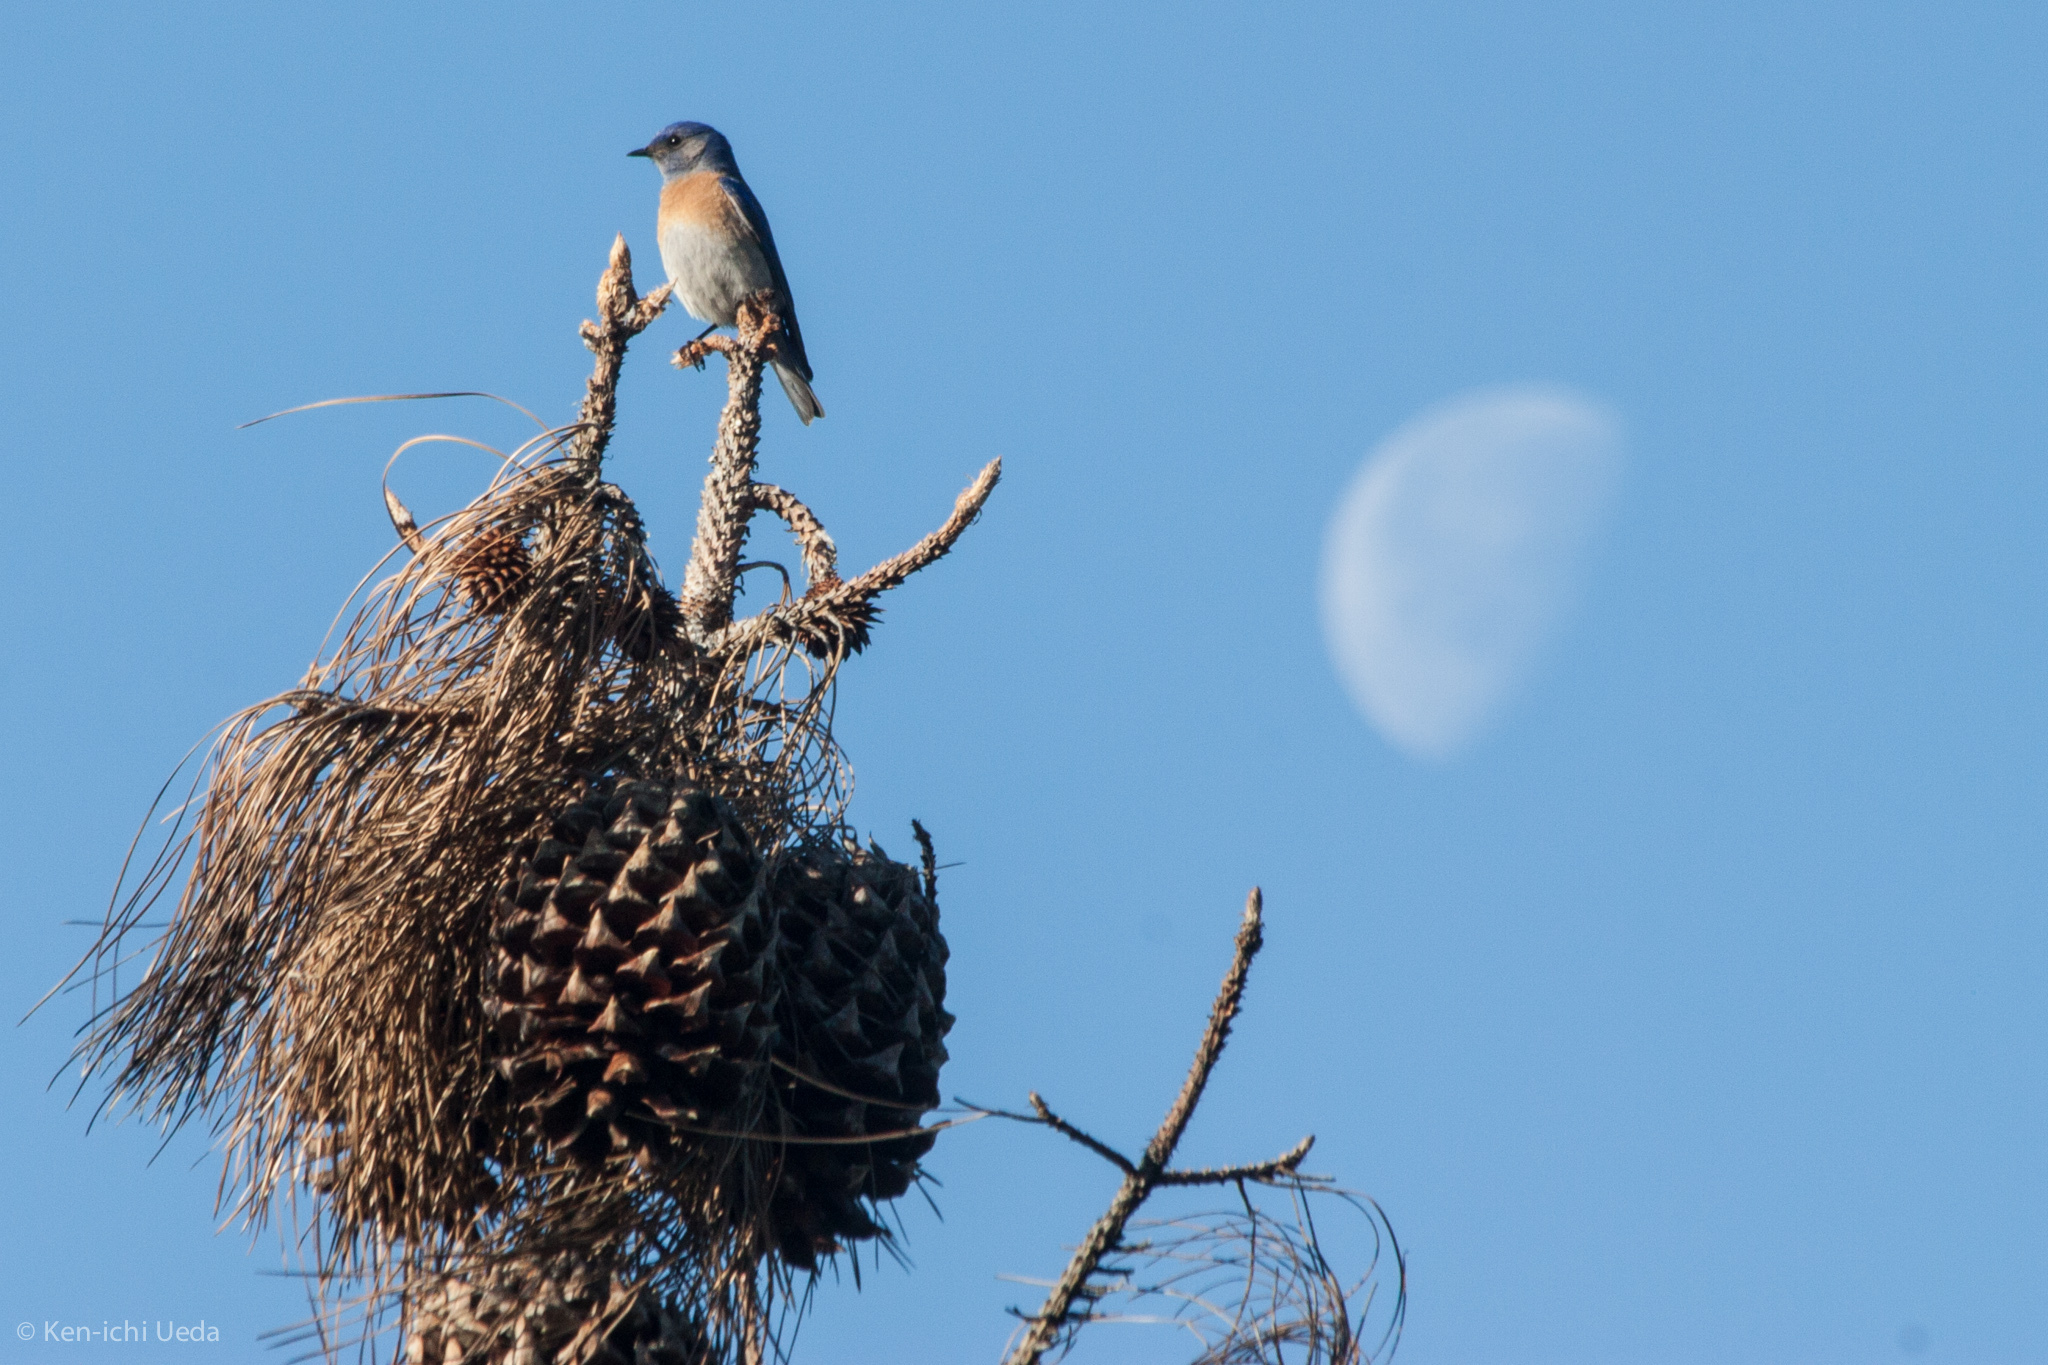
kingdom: Animalia
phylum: Chordata
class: Aves
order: Passeriformes
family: Turdidae
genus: Sialia
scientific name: Sialia mexicana
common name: Western bluebird
